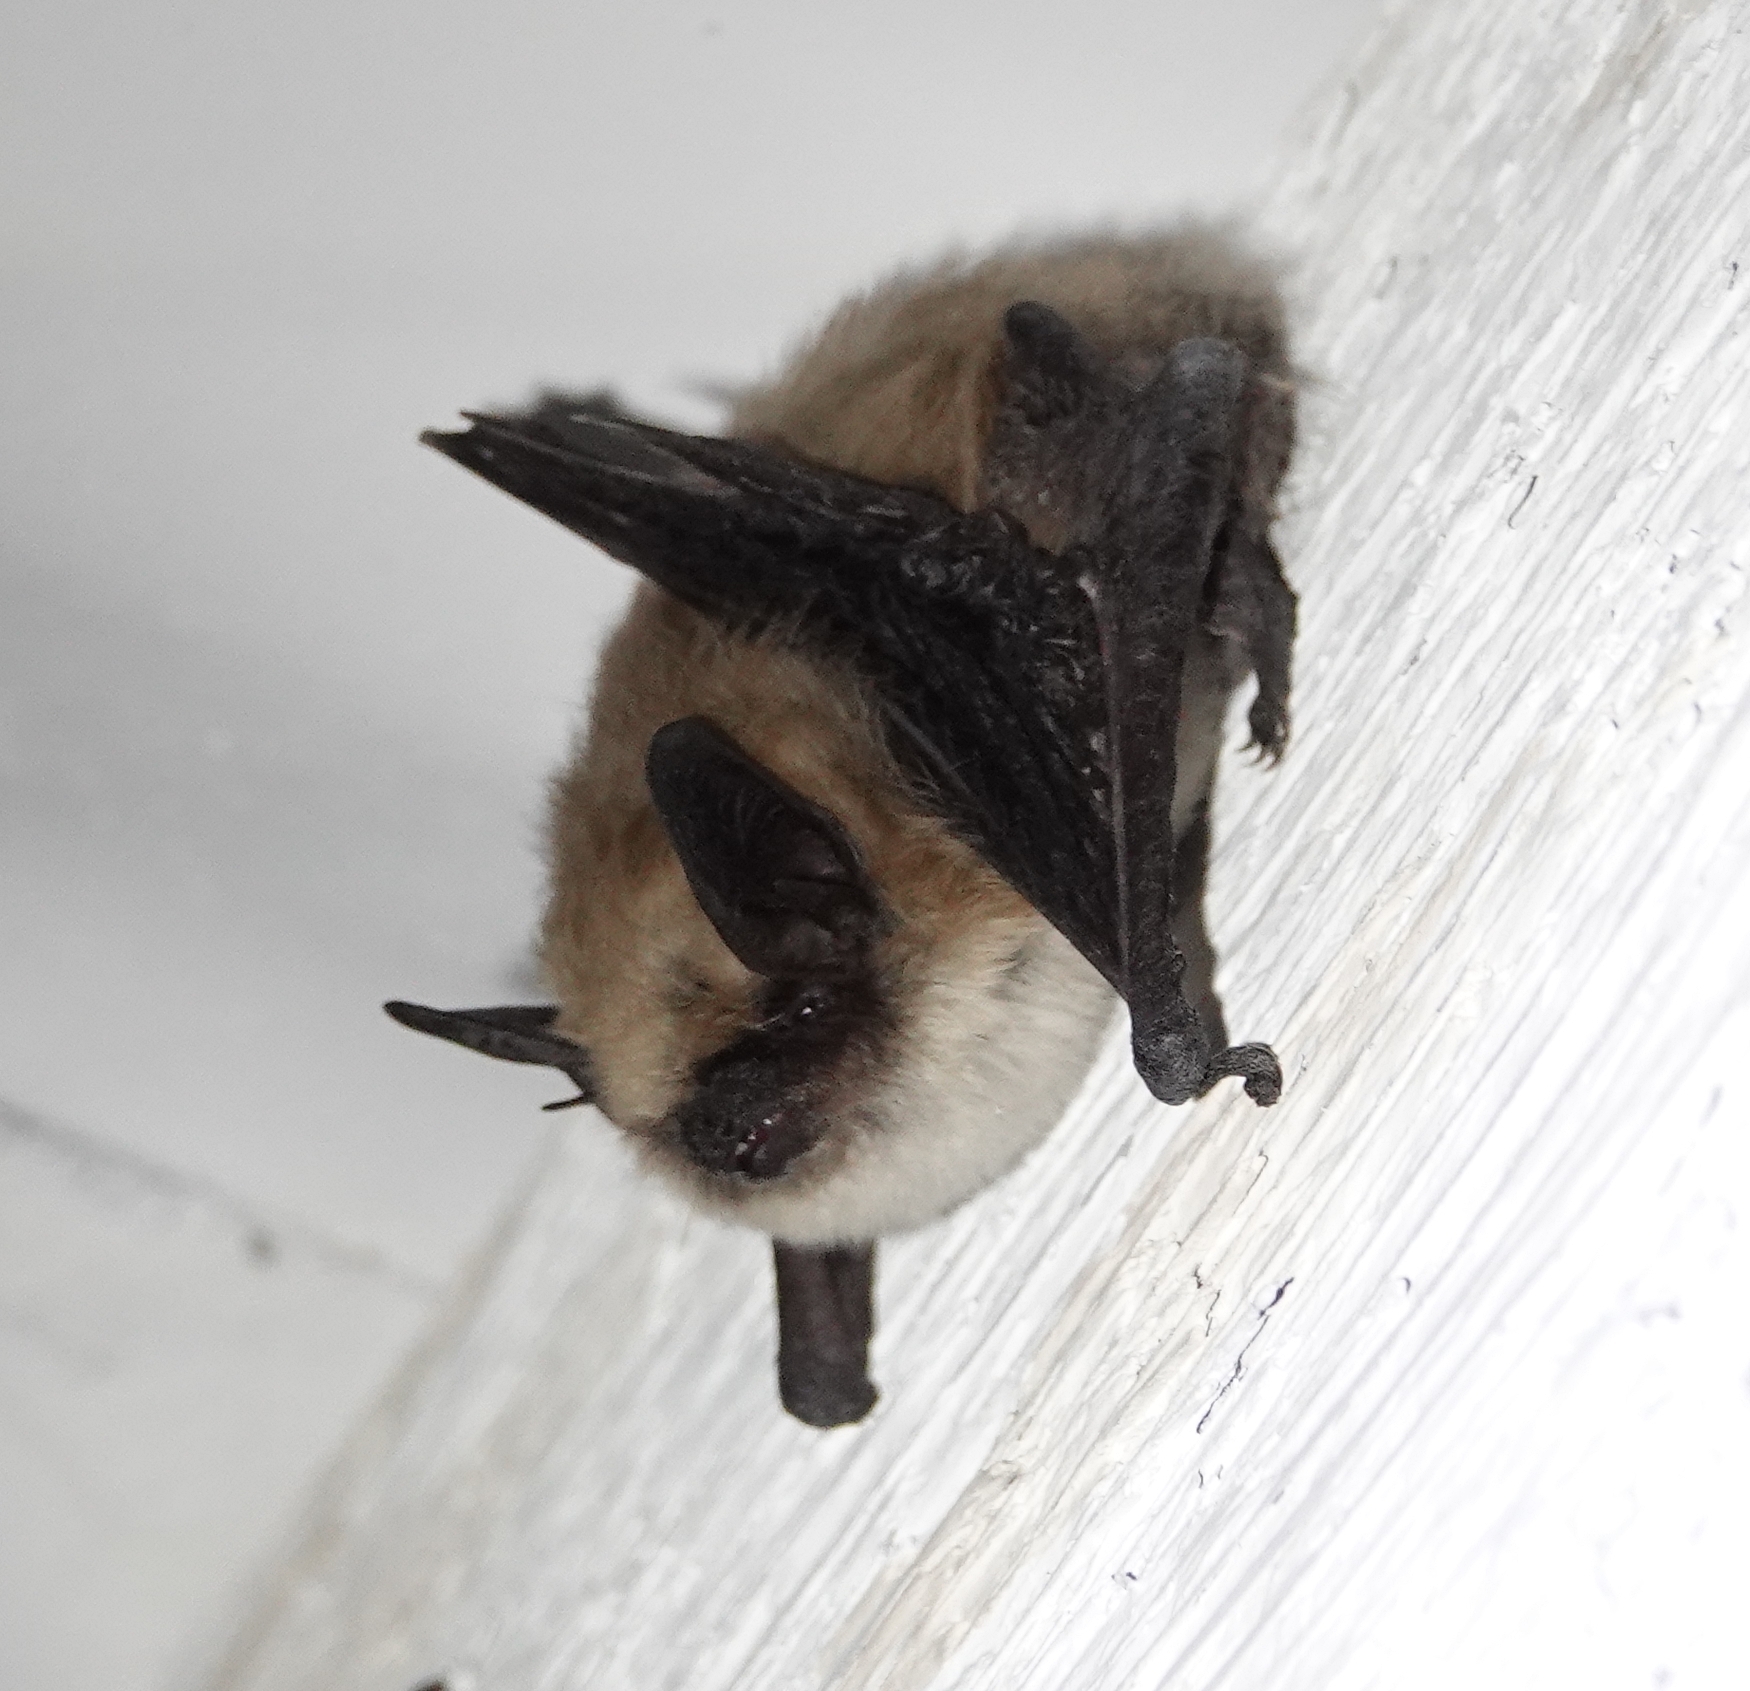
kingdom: Animalia
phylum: Chordata
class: Mammalia
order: Chiroptera
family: Vespertilionidae
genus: Myotis
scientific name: Myotis ciliolabrum
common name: Western small-footed myotis
